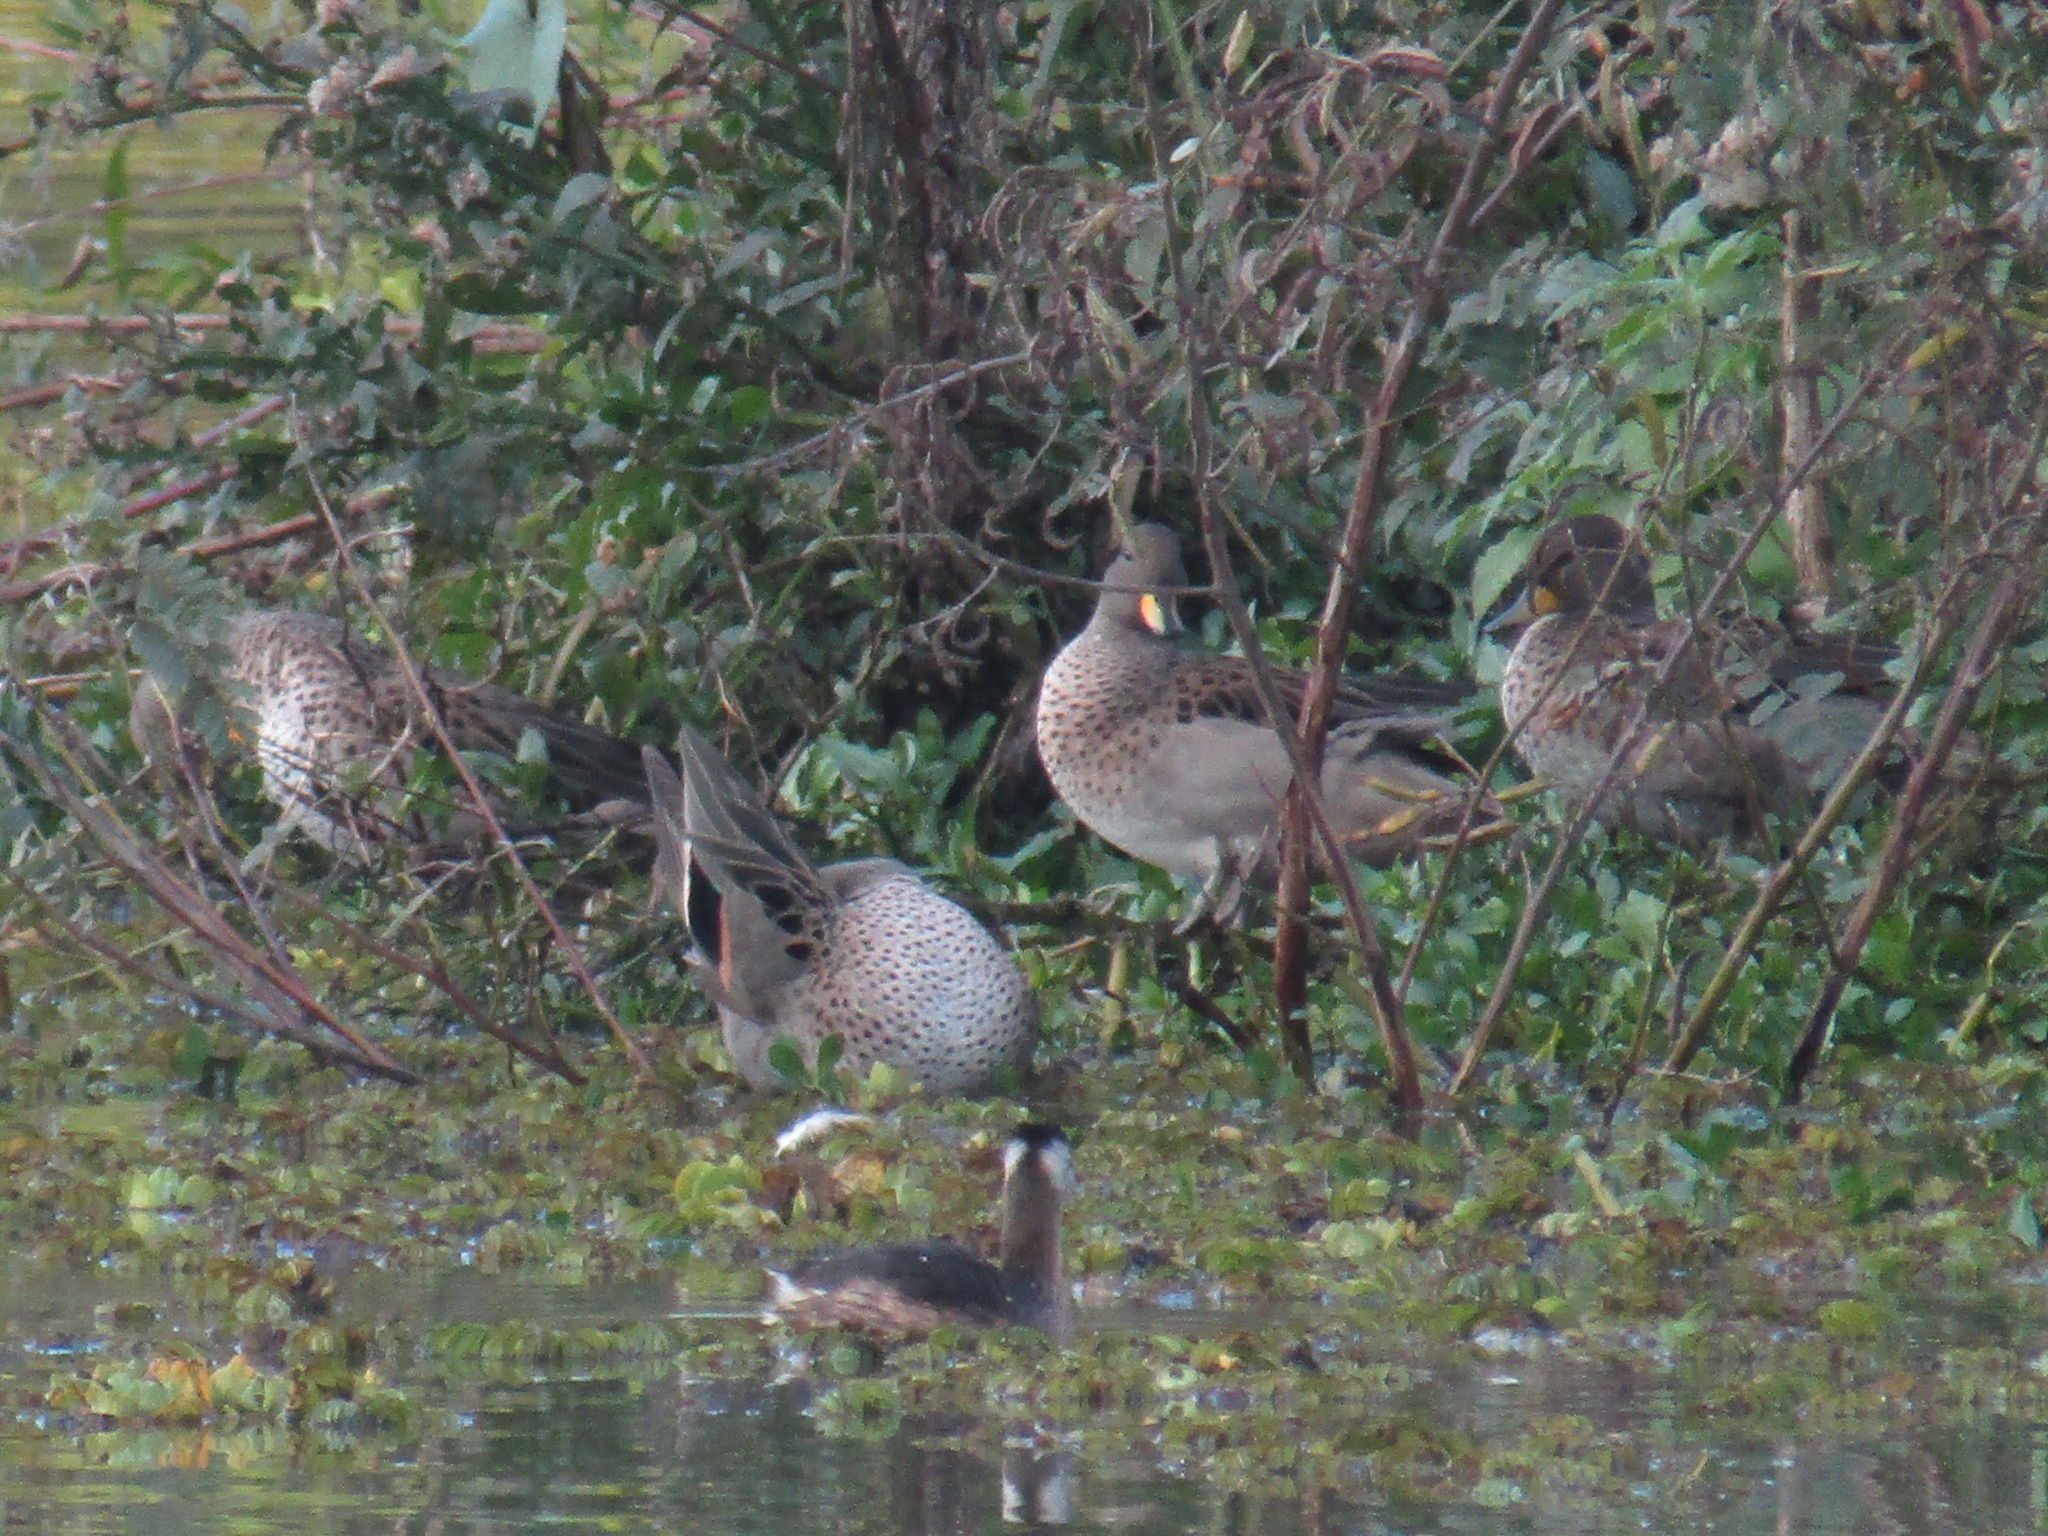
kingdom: Animalia
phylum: Chordata
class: Aves
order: Anseriformes
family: Anatidae
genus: Anas
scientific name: Anas flavirostris
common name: Yellow-billed teal
